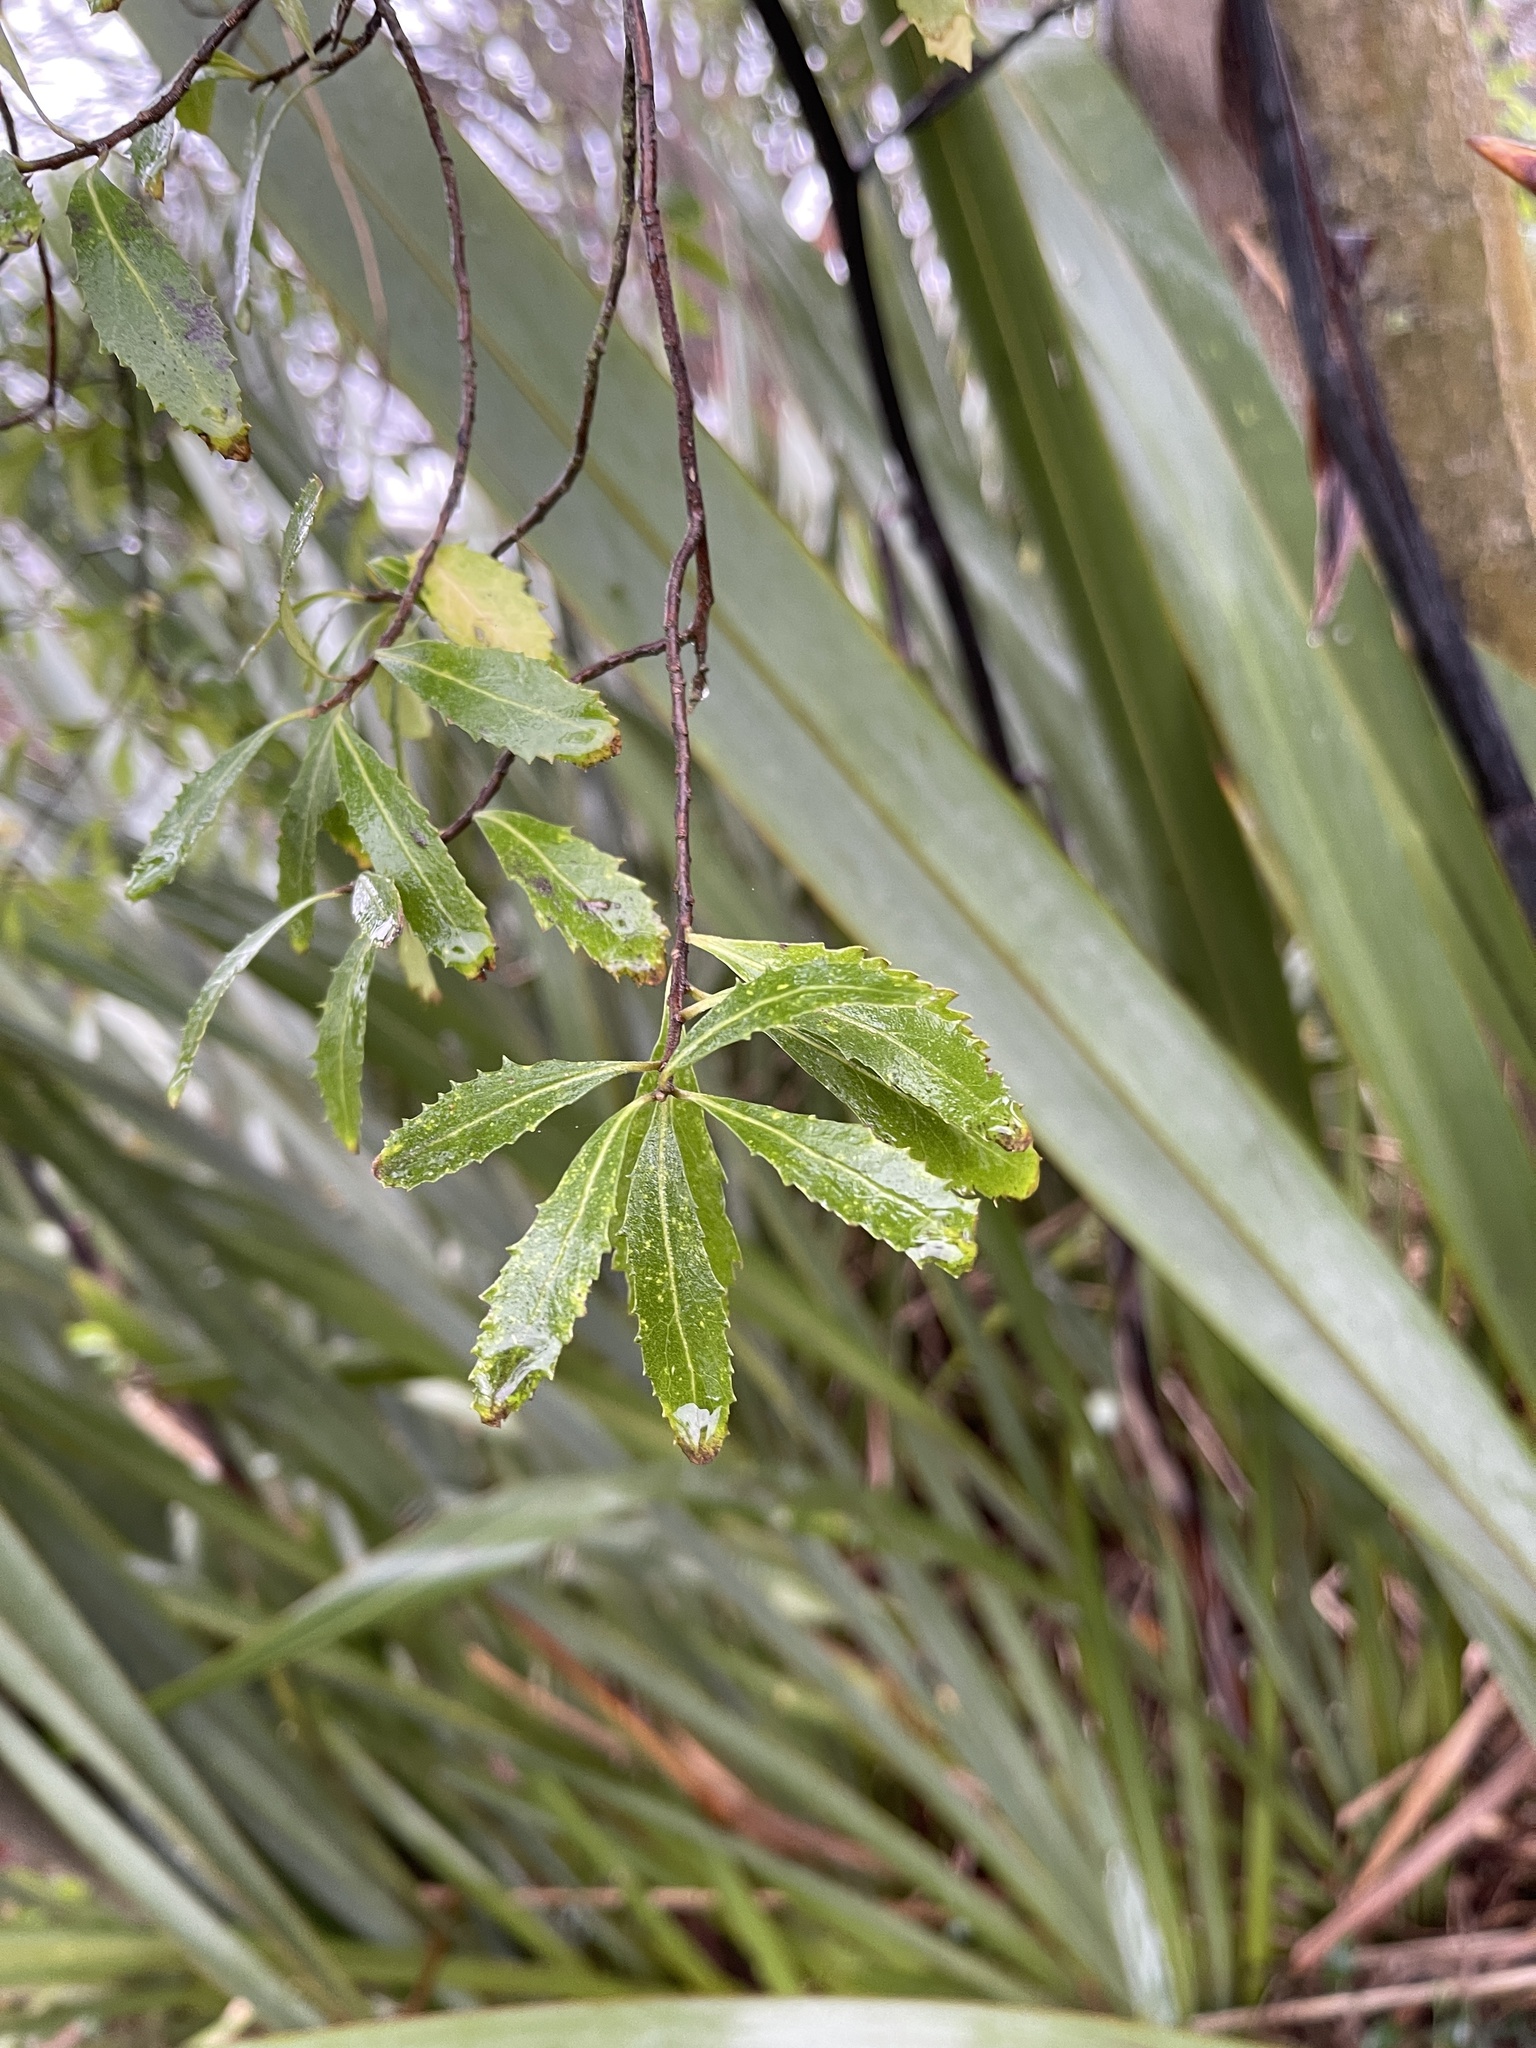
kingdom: Plantae
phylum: Tracheophyta
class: Magnoliopsida
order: Malvales
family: Malvaceae
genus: Hoheria
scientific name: Hoheria angustifolia
